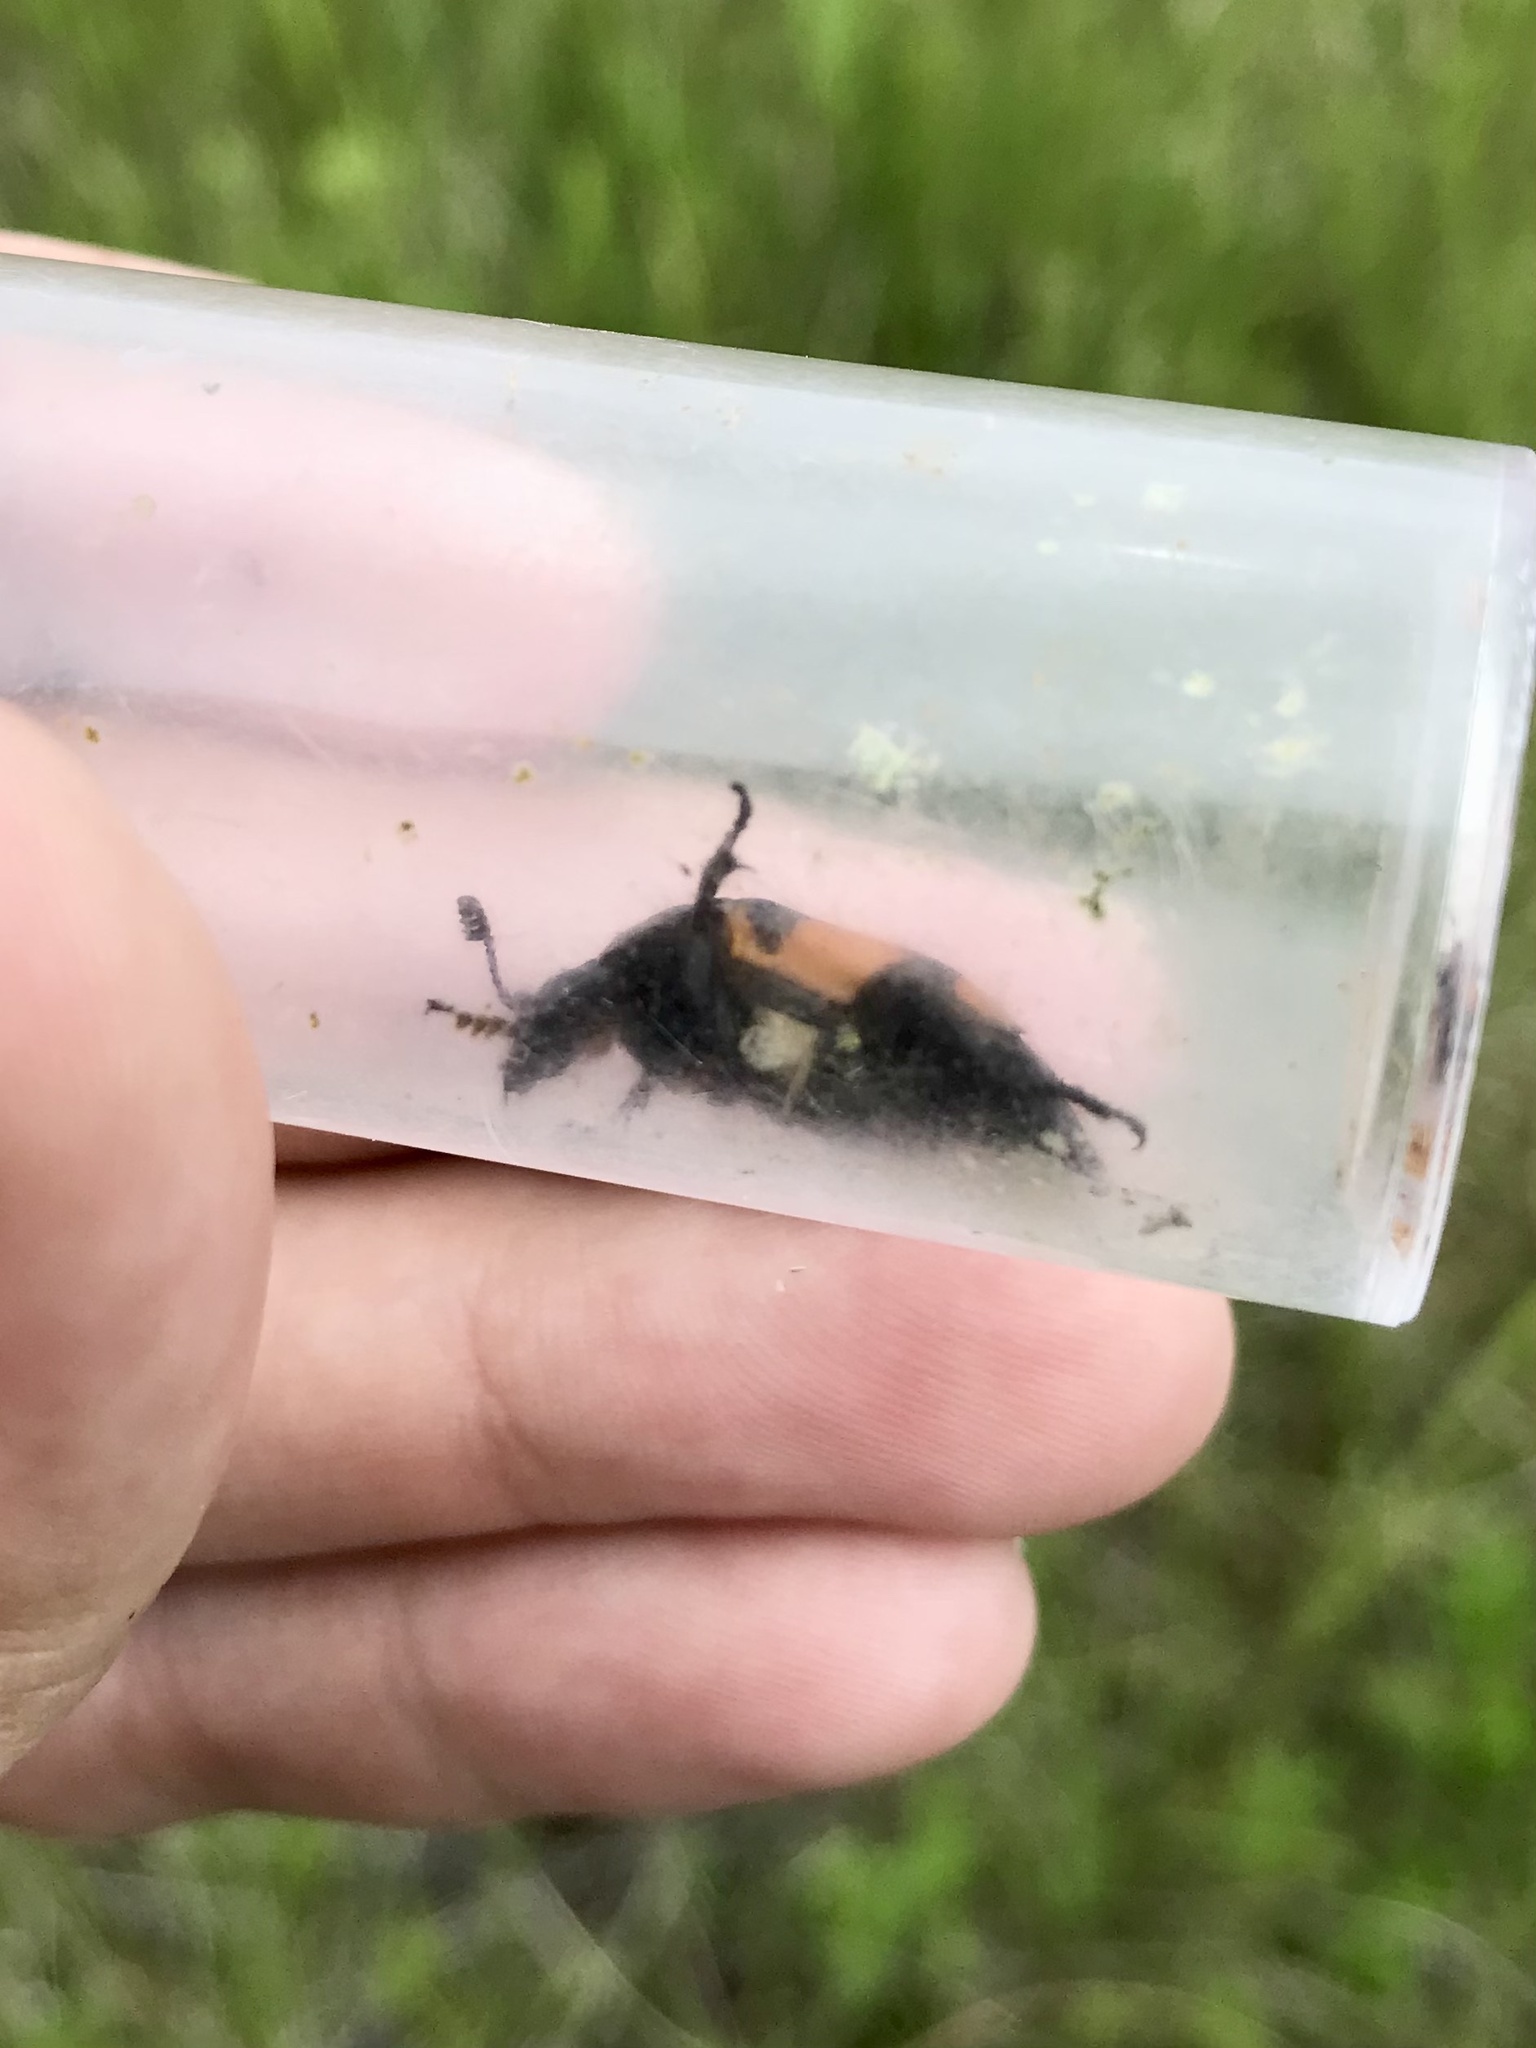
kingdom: Animalia
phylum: Arthropoda
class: Insecta
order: Coleoptera
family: Staphylinidae
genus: Nicrophorus
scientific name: Nicrophorus hebes
